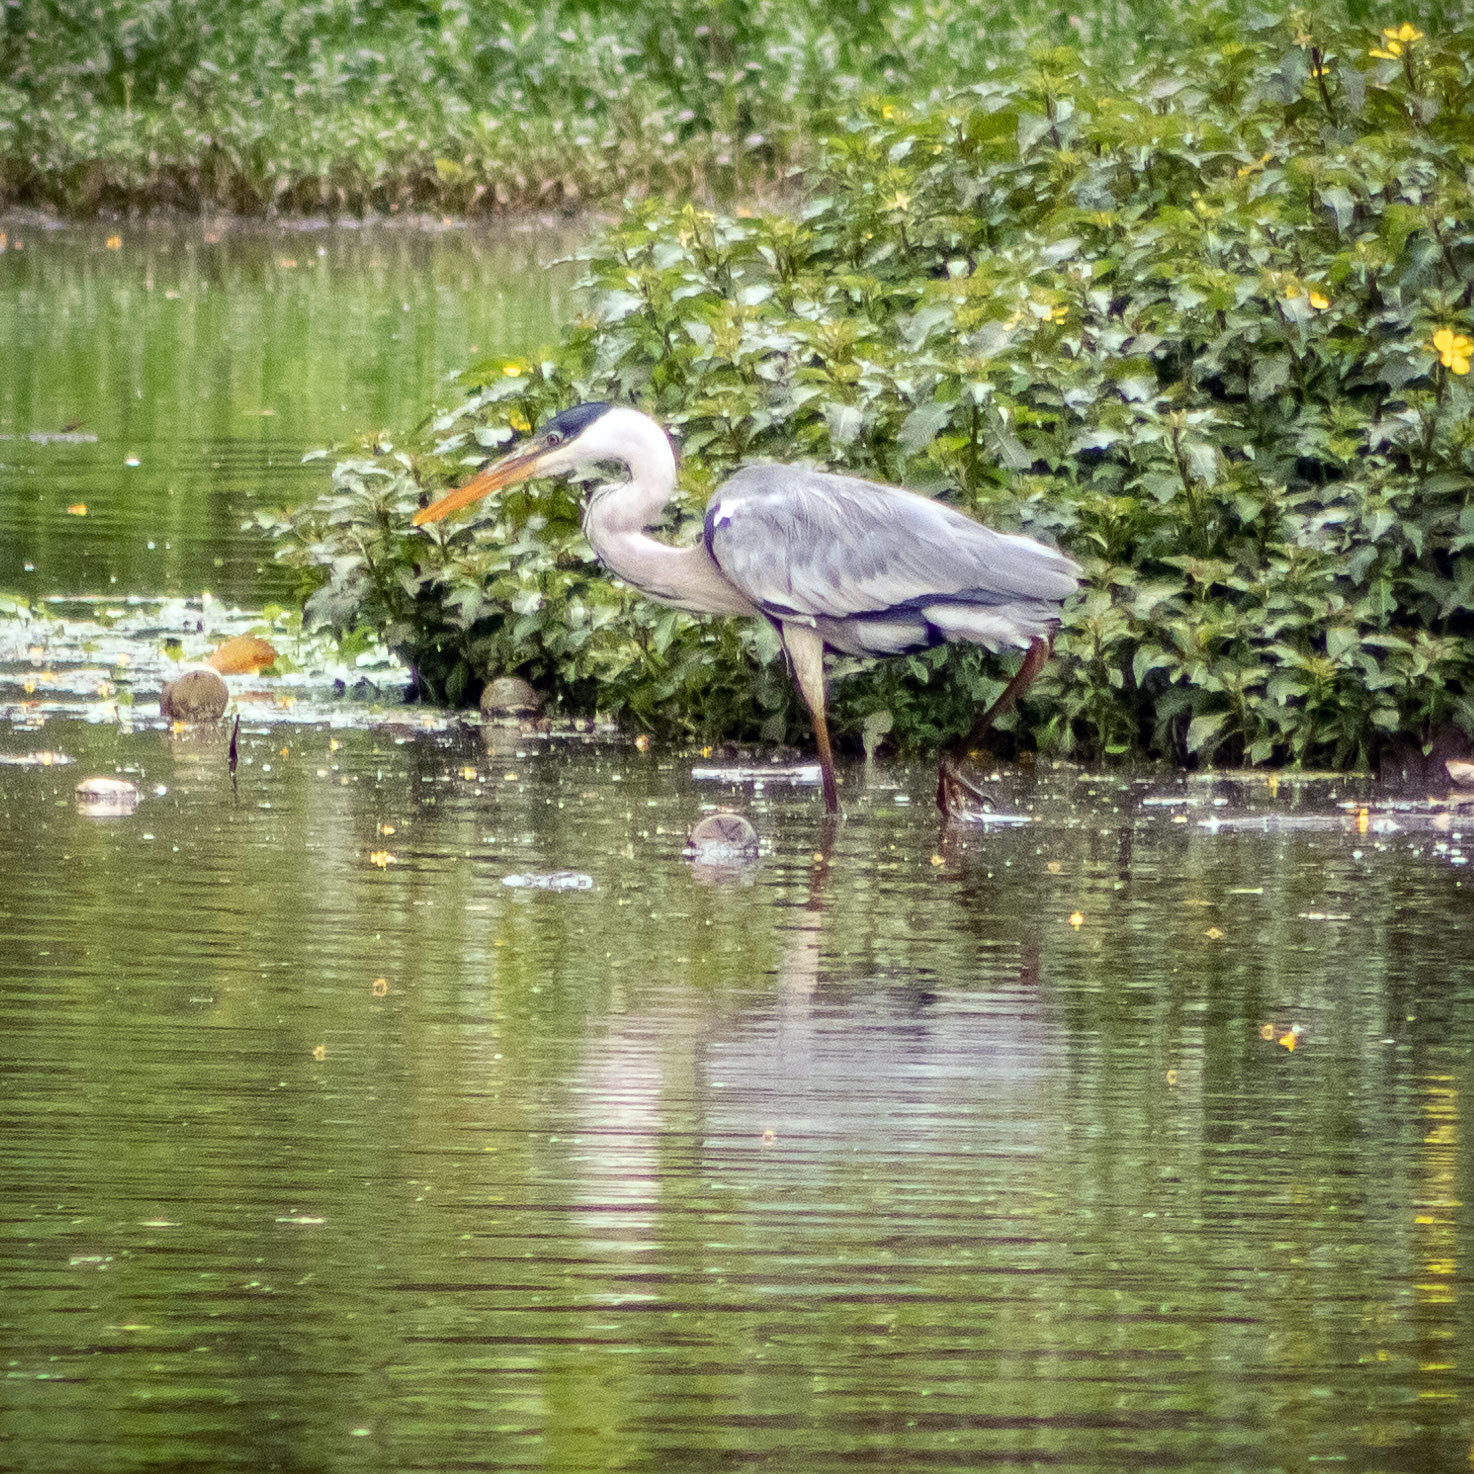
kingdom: Animalia
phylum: Chordata
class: Aves
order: Pelecaniformes
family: Ardeidae
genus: Ardea
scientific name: Ardea cocoi
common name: Cocoi heron
